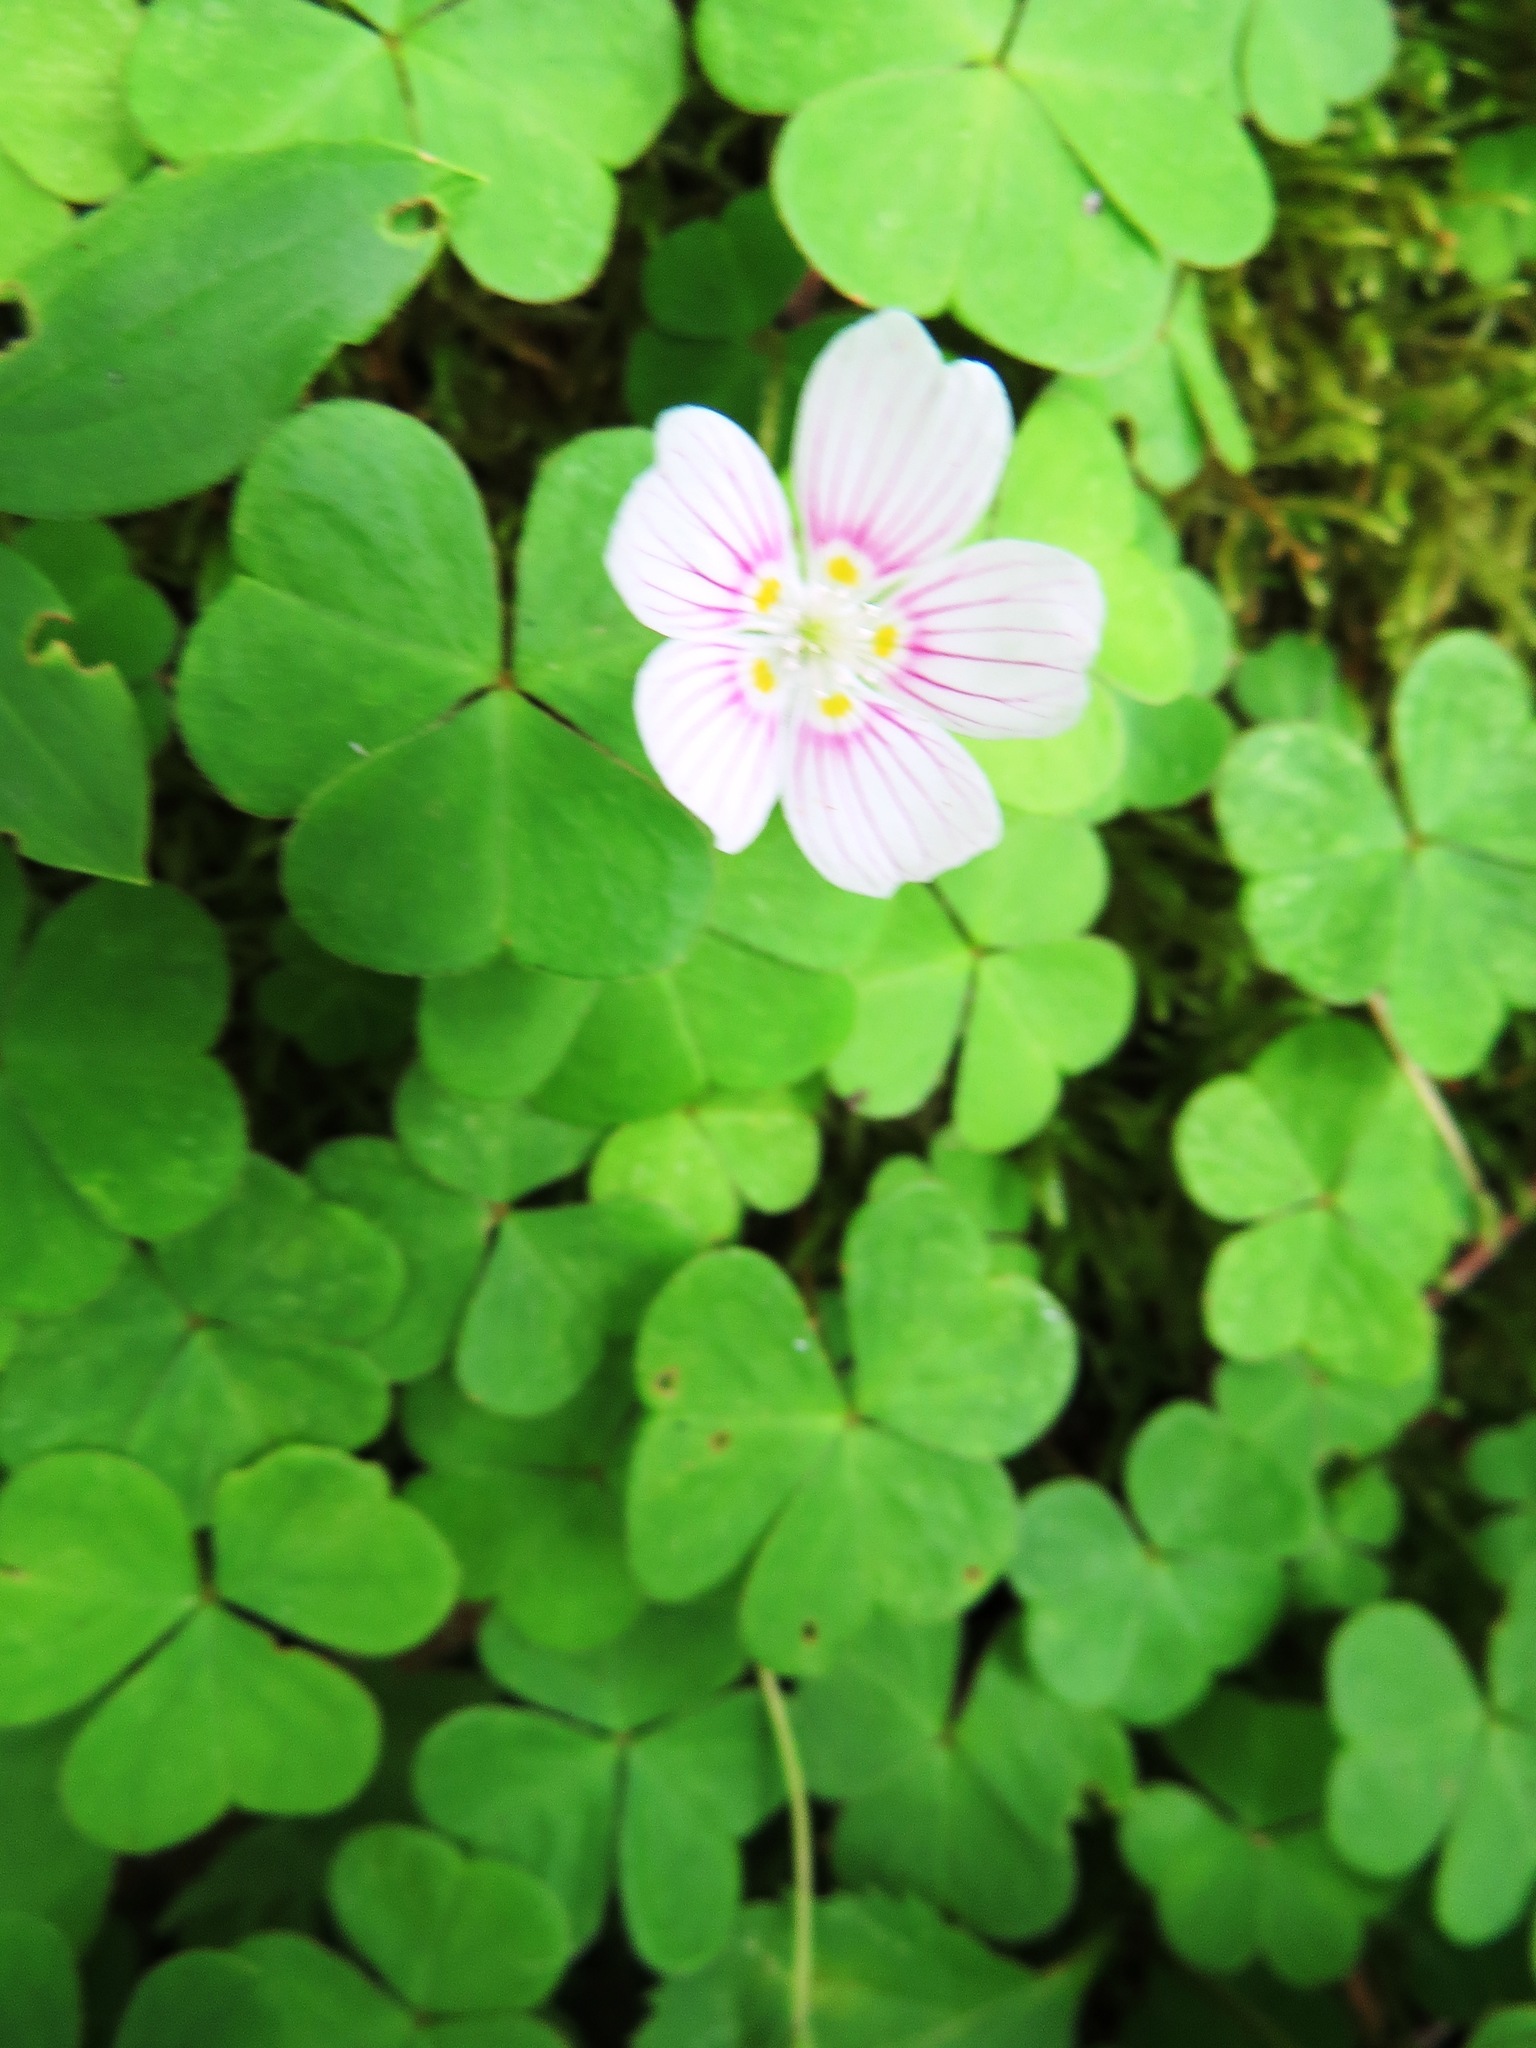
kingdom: Plantae
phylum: Tracheophyta
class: Magnoliopsida
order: Oxalidales
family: Oxalidaceae
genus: Oxalis
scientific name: Oxalis montana
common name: American wood-sorrel
